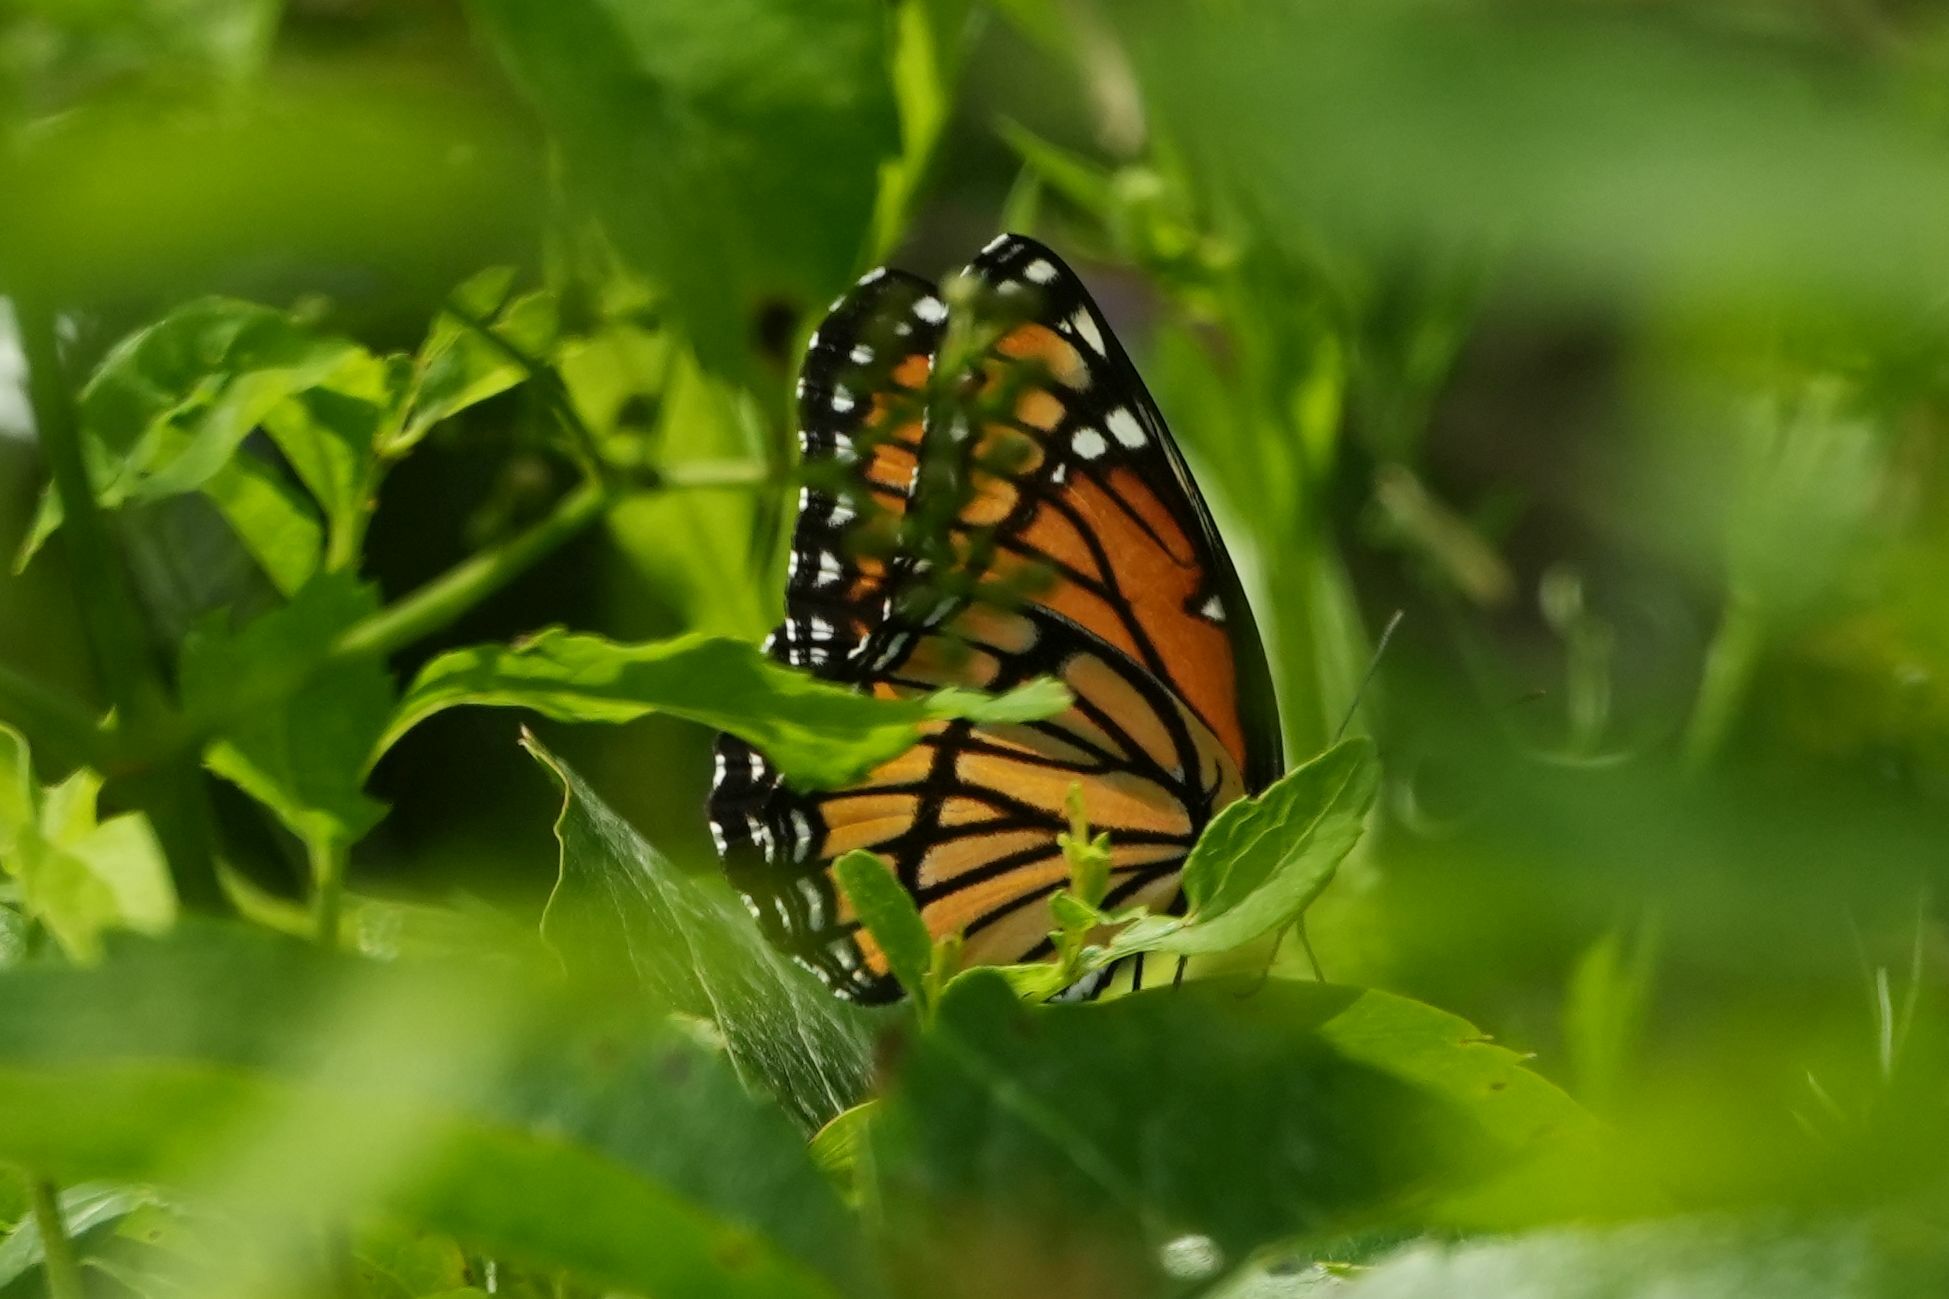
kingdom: Animalia
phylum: Arthropoda
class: Insecta
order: Lepidoptera
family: Nymphalidae
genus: Limenitis
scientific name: Limenitis archippus
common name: Viceroy
